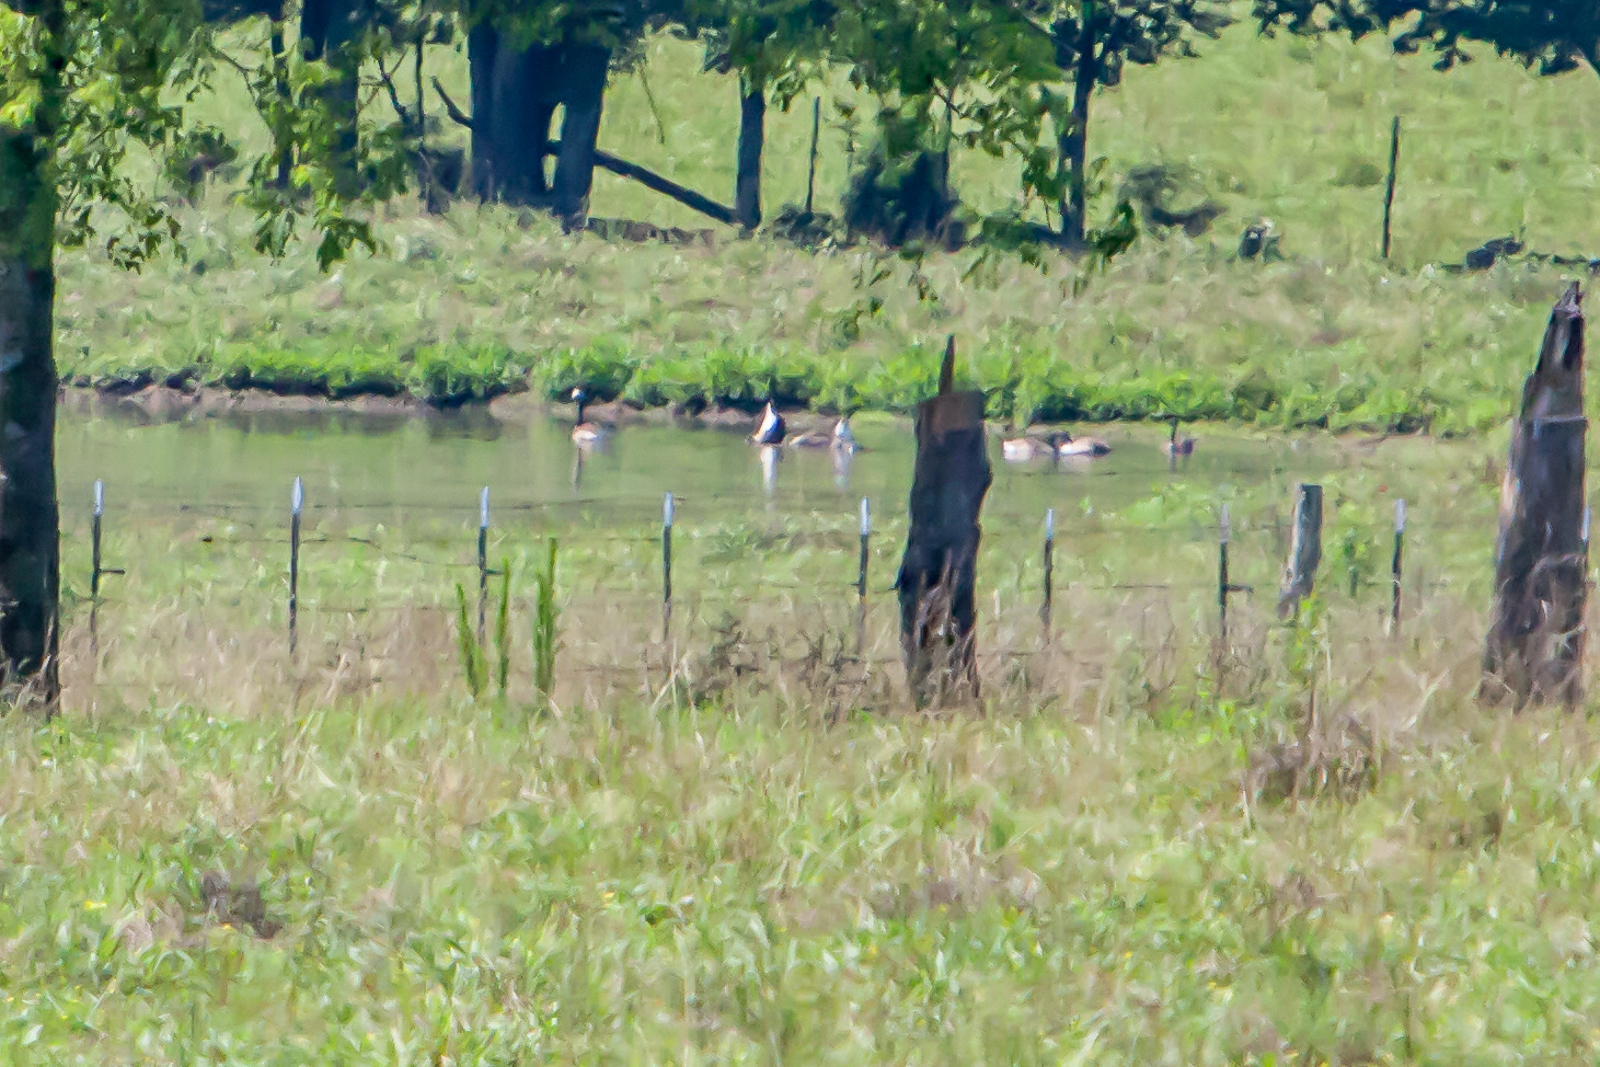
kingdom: Animalia
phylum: Chordata
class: Aves
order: Anseriformes
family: Anatidae
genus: Branta
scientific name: Branta canadensis
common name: Canada goose
